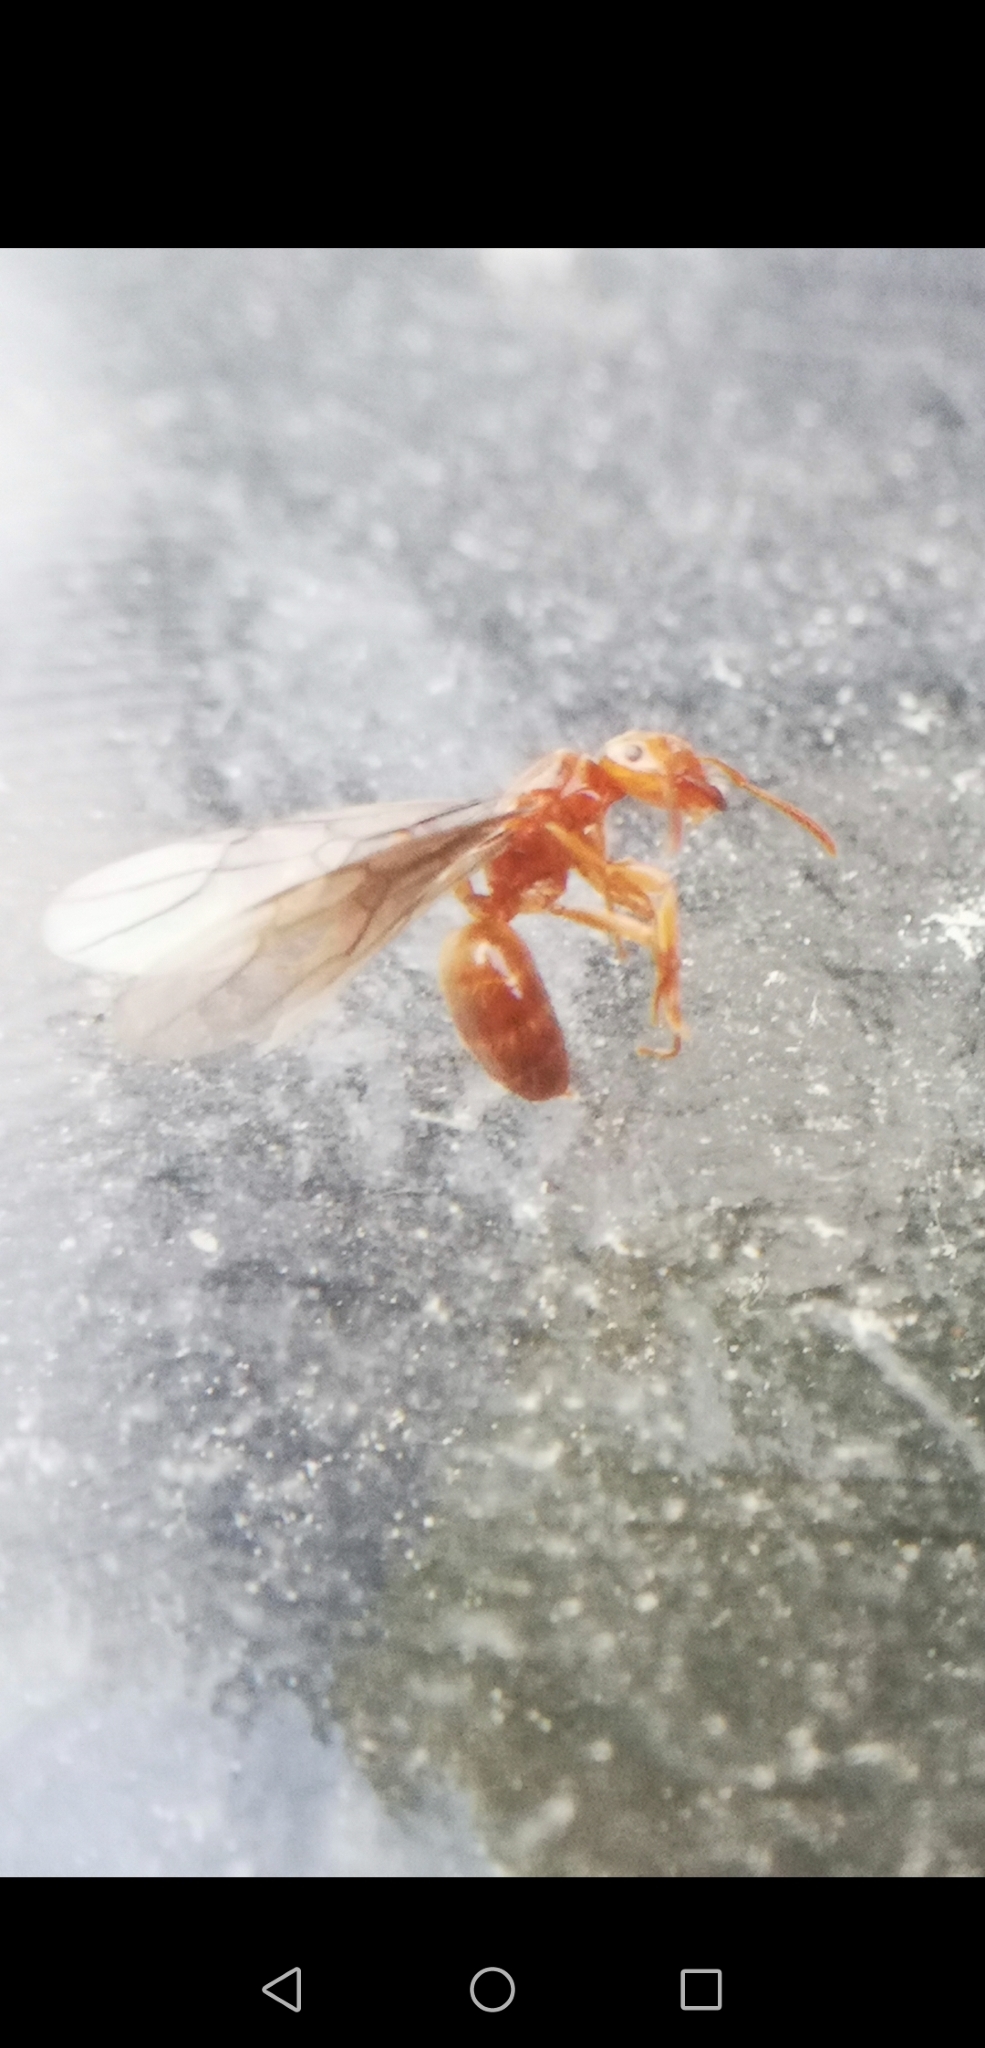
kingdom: Animalia
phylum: Arthropoda
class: Insecta
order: Hymenoptera
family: Formicidae
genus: Acanthomyops
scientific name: Acanthomyops interjectus
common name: Larger yellow ant
